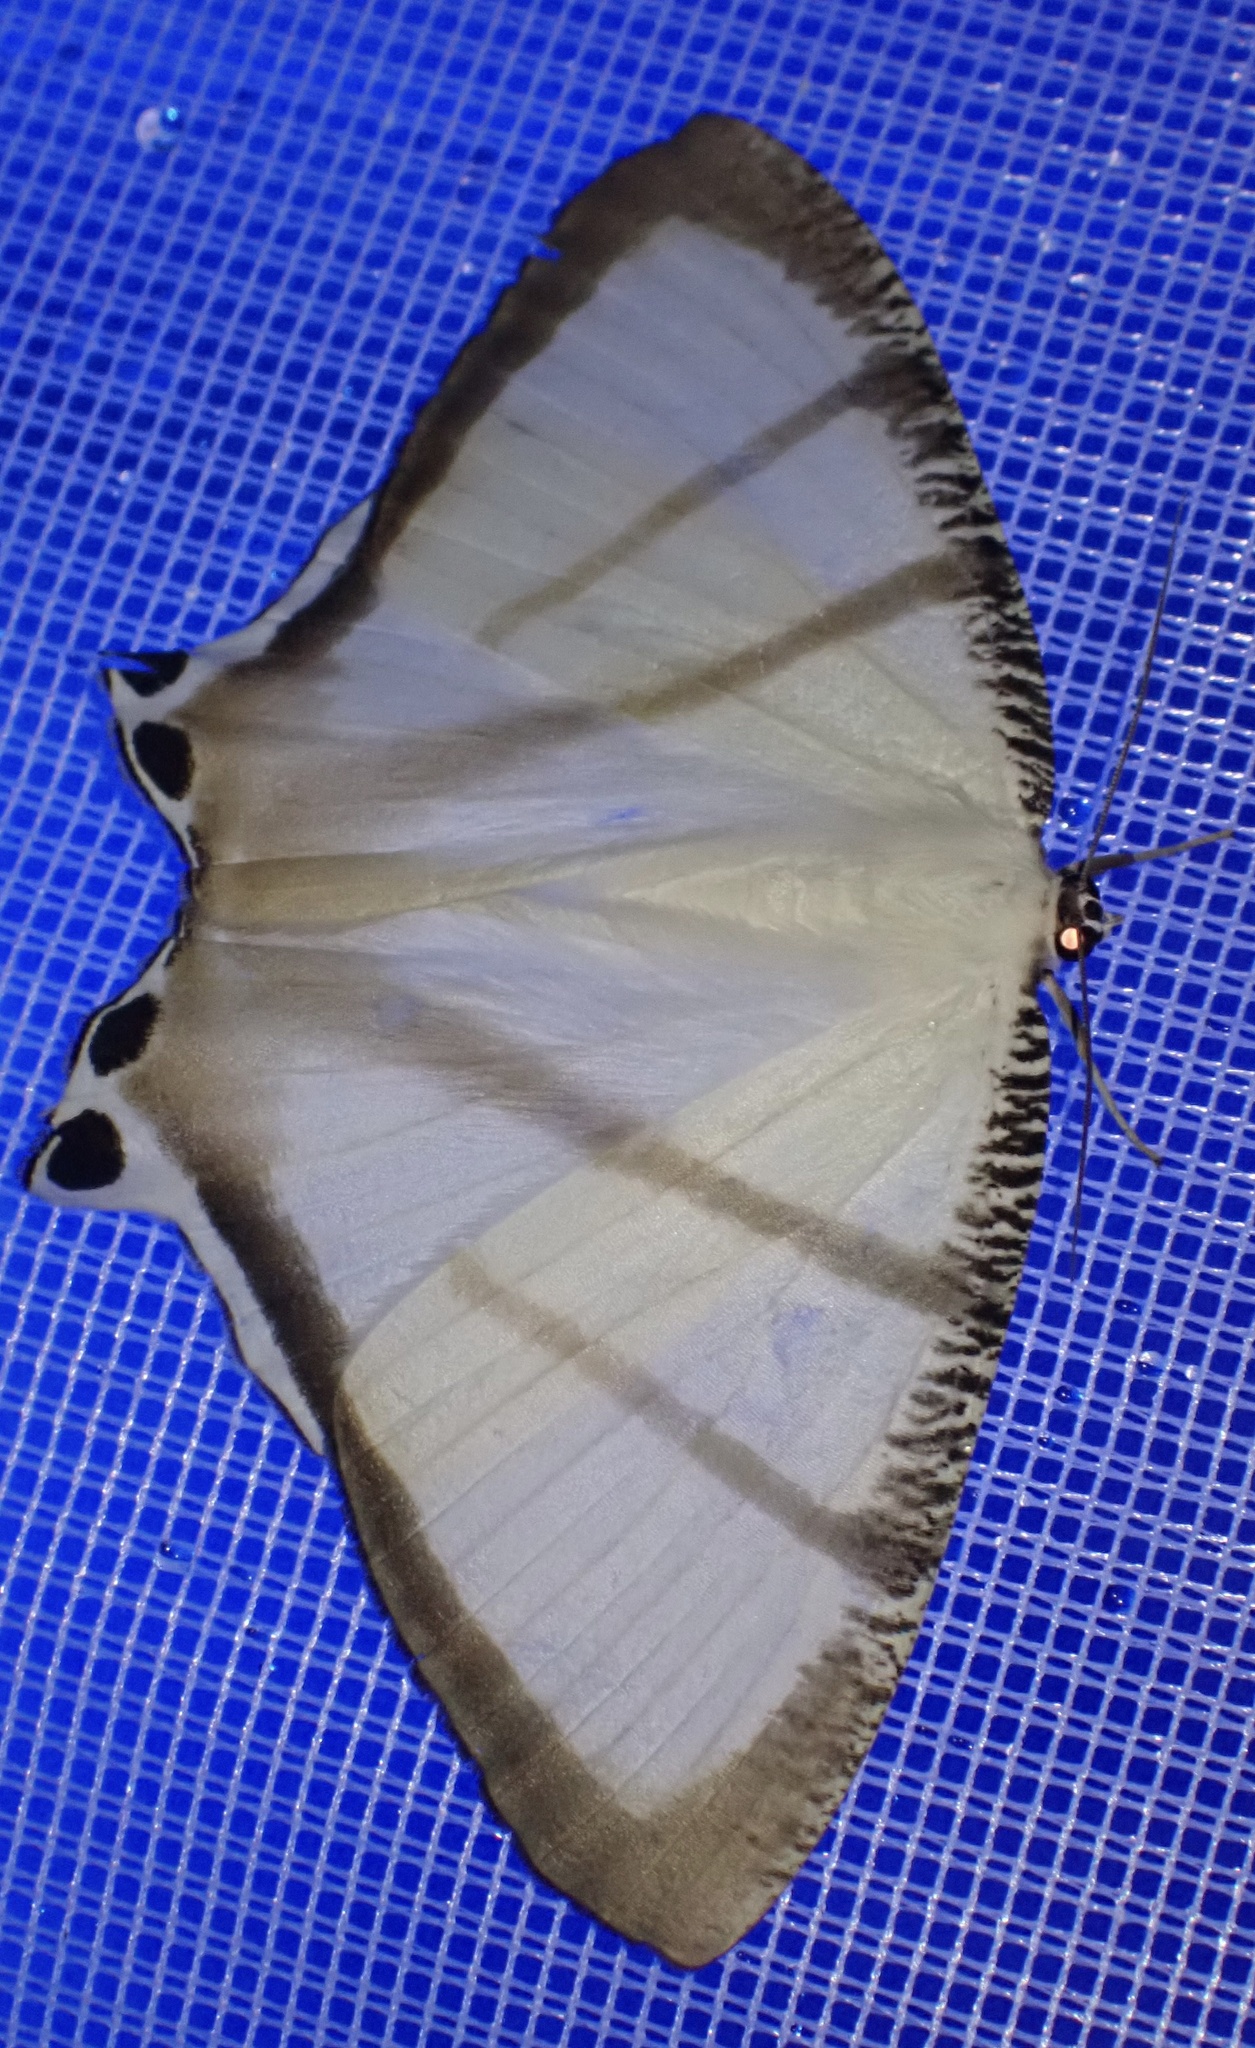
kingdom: Animalia
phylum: Arthropoda
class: Insecta
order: Lepidoptera
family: Uraniidae
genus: Cyphura
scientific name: Cyphura maxima
